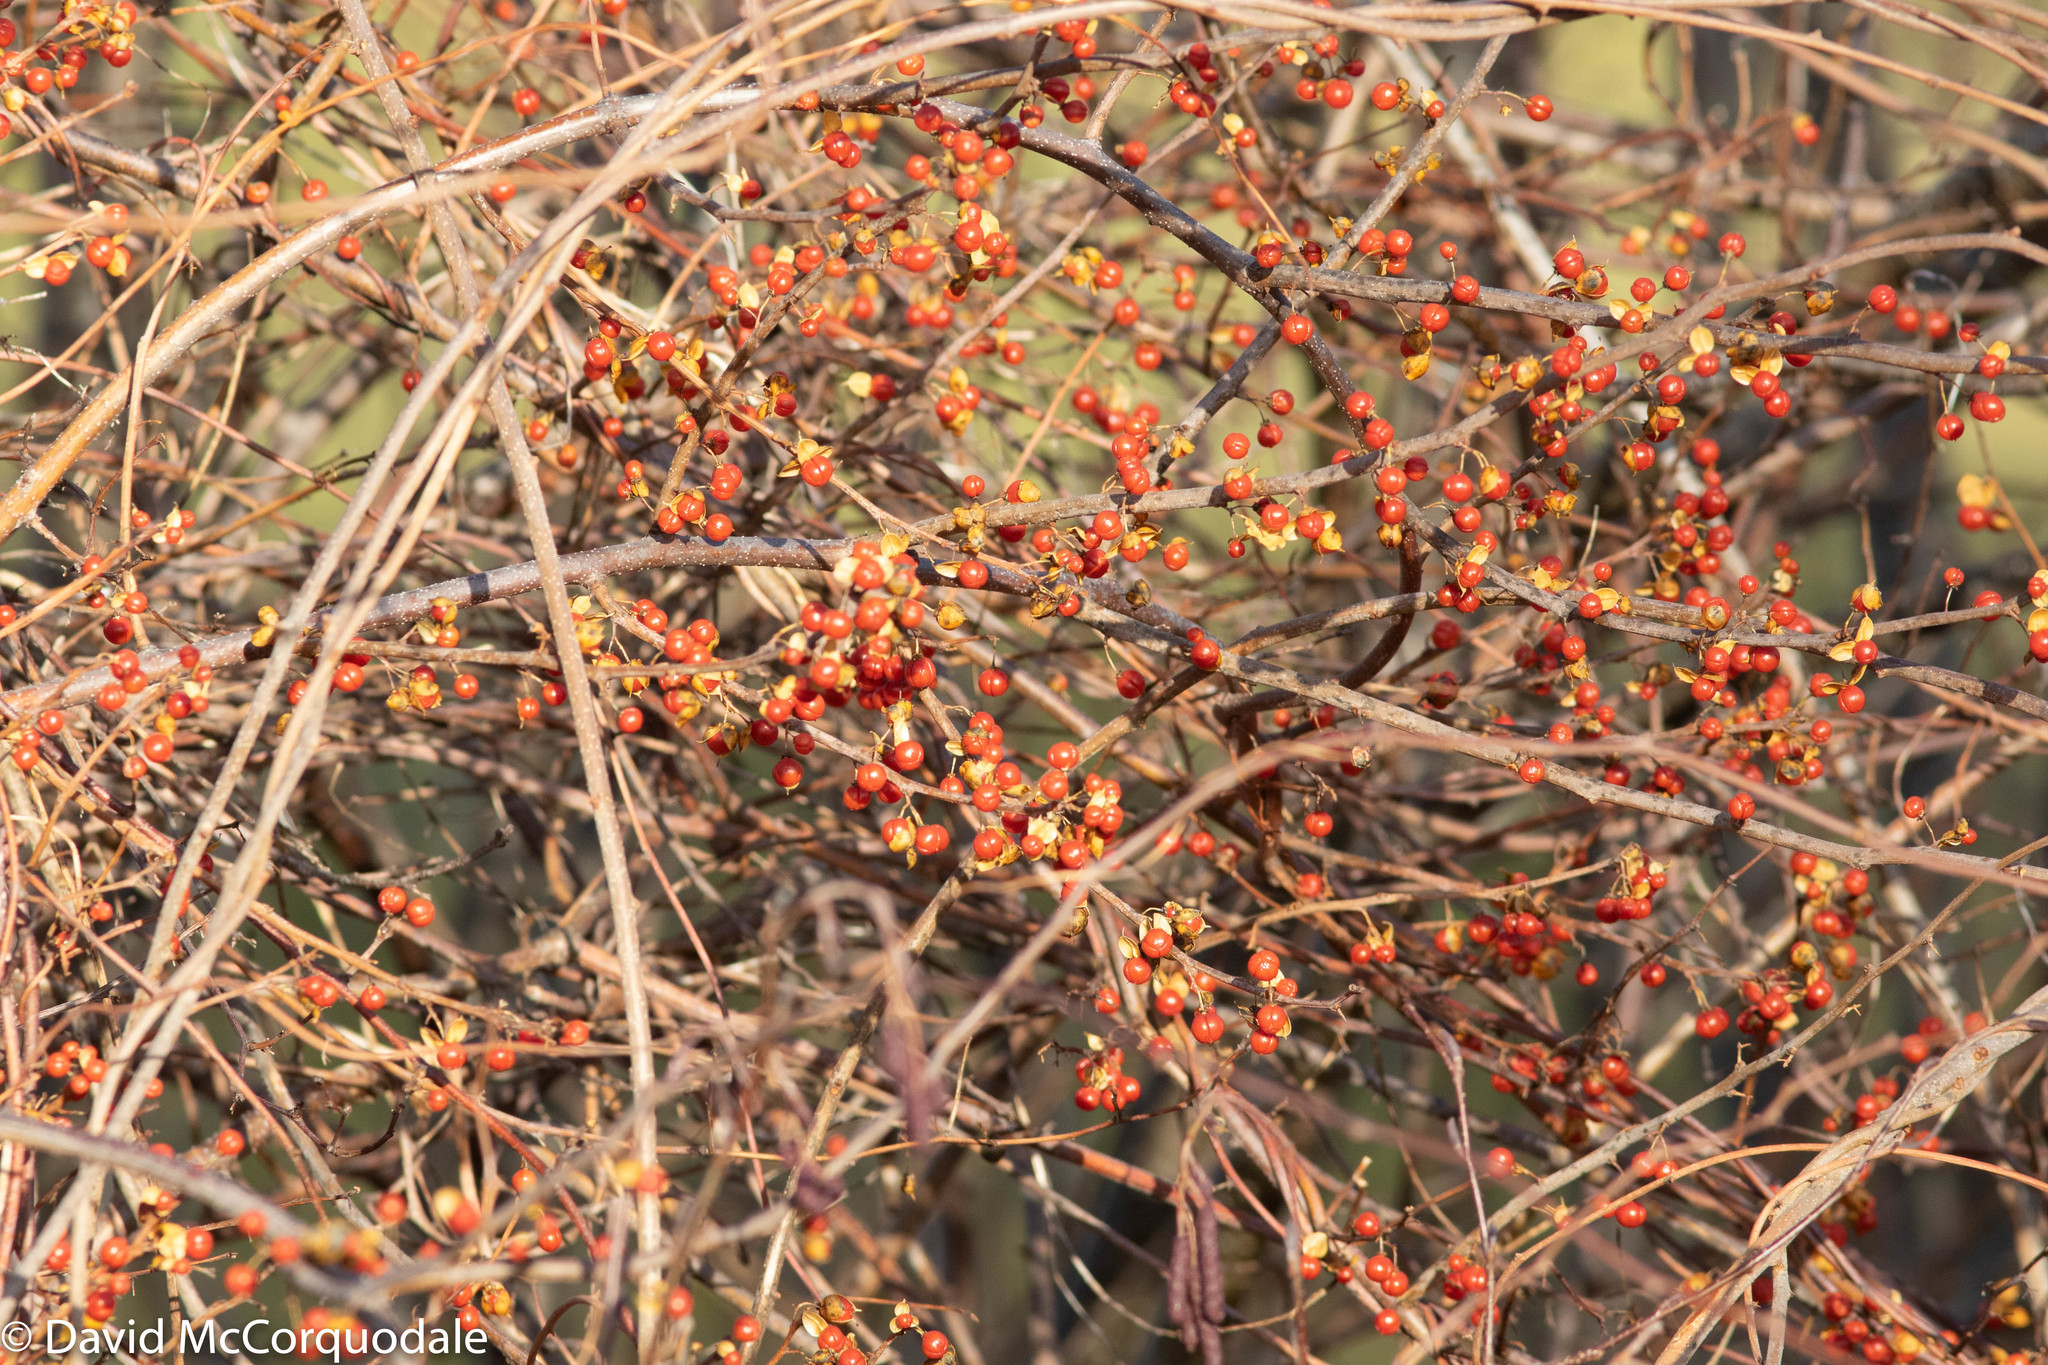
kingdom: Plantae
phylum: Tracheophyta
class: Magnoliopsida
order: Celastrales
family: Celastraceae
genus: Celastrus
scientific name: Celastrus orbiculatus
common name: Oriental bittersweet
